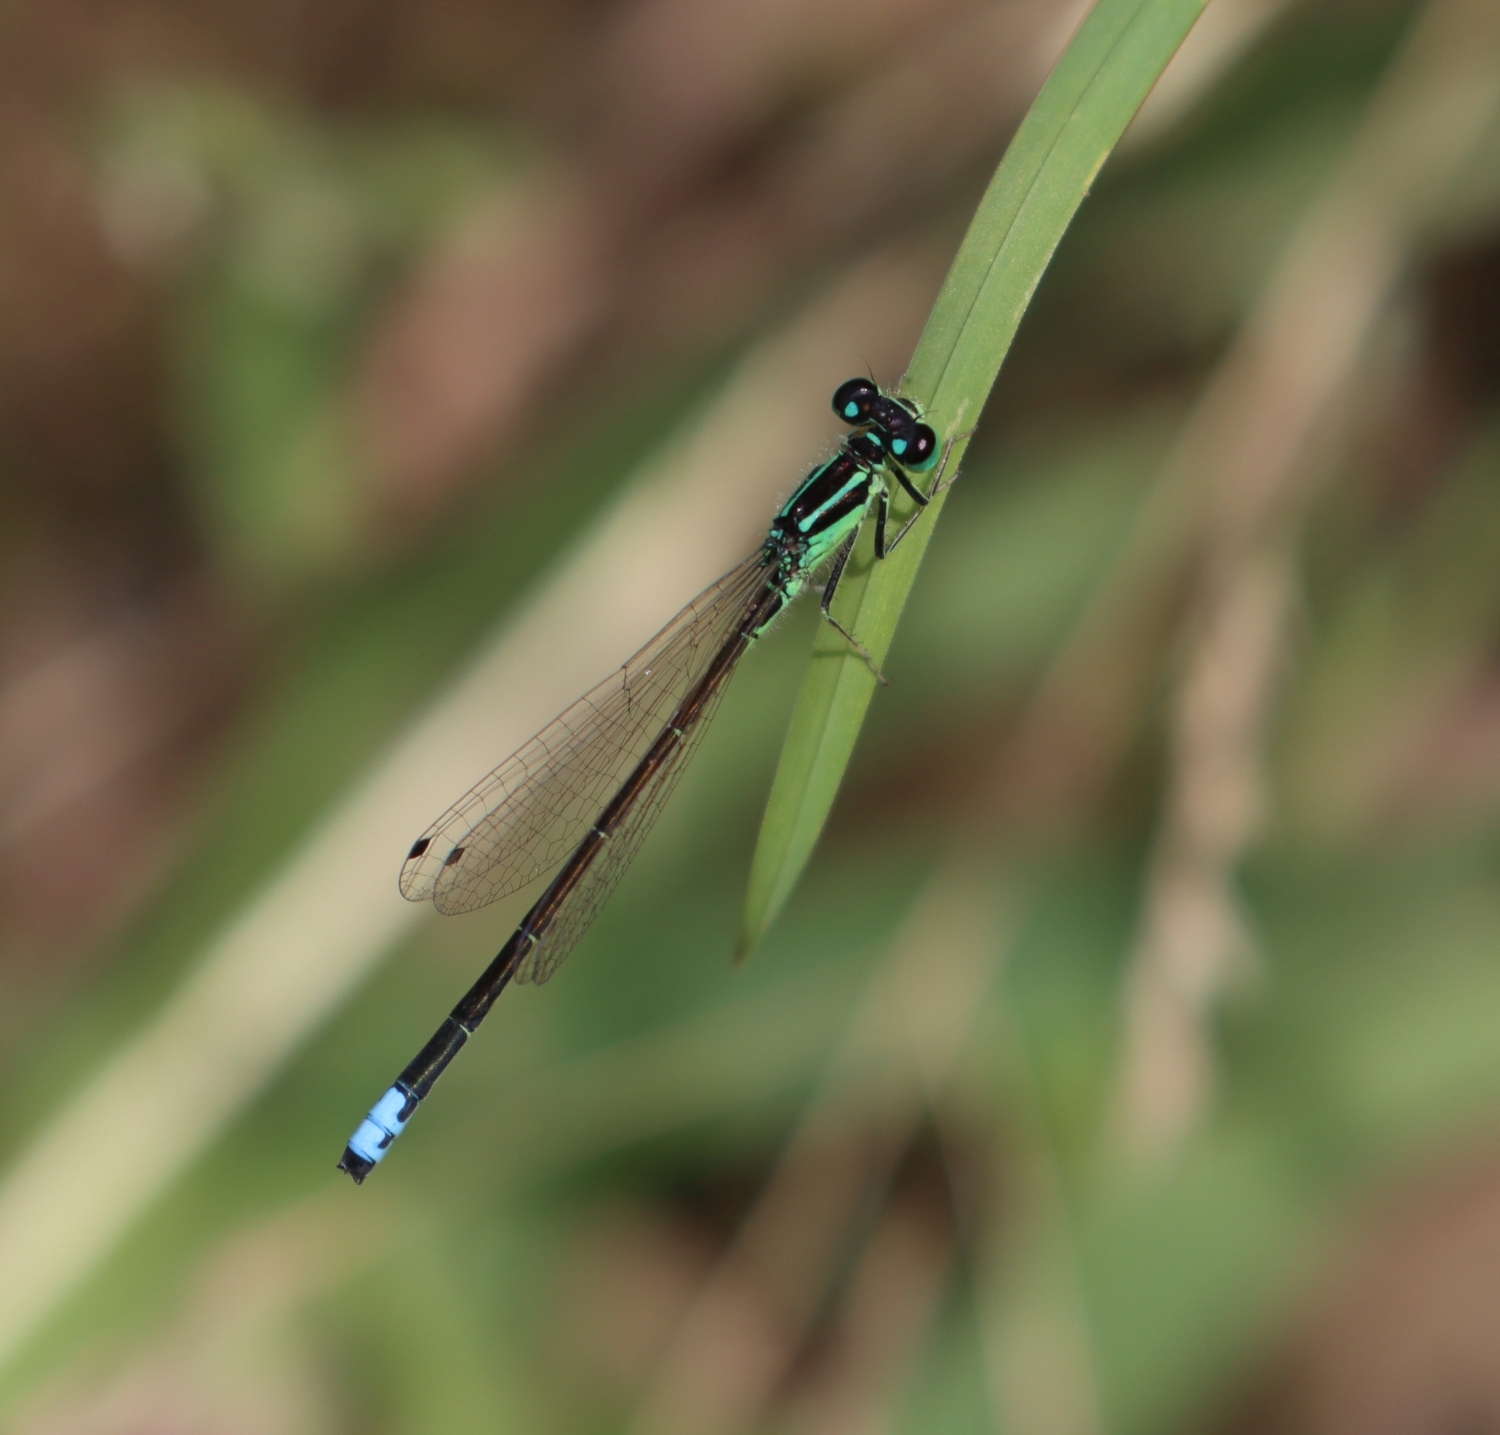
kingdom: Animalia
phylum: Arthropoda
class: Insecta
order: Odonata
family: Coenagrionidae
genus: Ischnura
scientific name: Ischnura verticalis
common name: Eastern forktail
